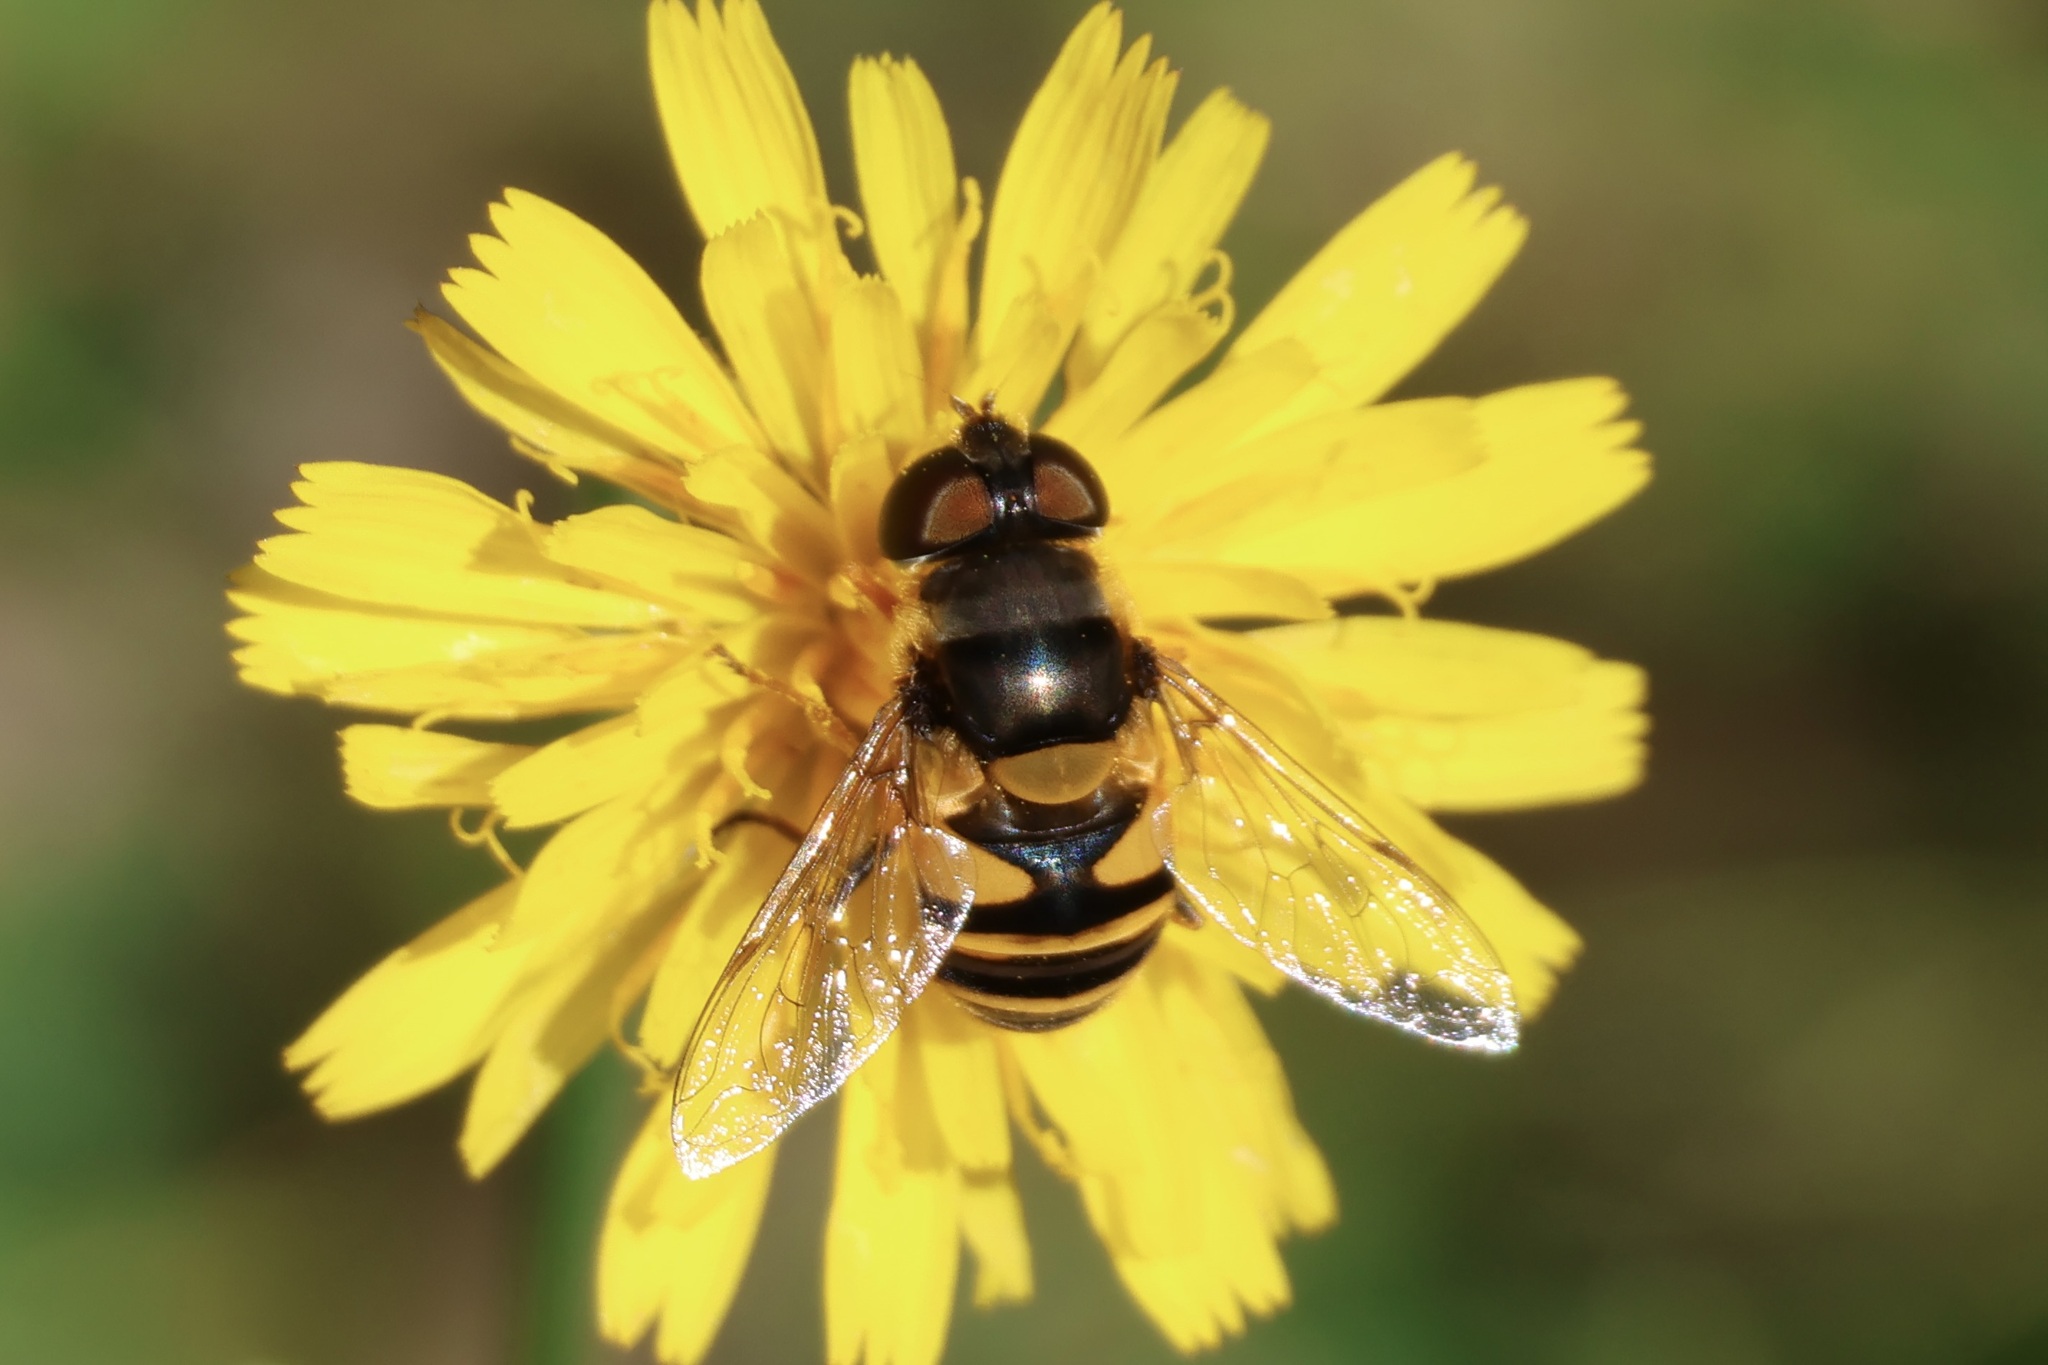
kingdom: Animalia
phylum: Arthropoda
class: Insecta
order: Diptera
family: Syrphidae
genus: Eristalis
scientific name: Eristalis transversa
